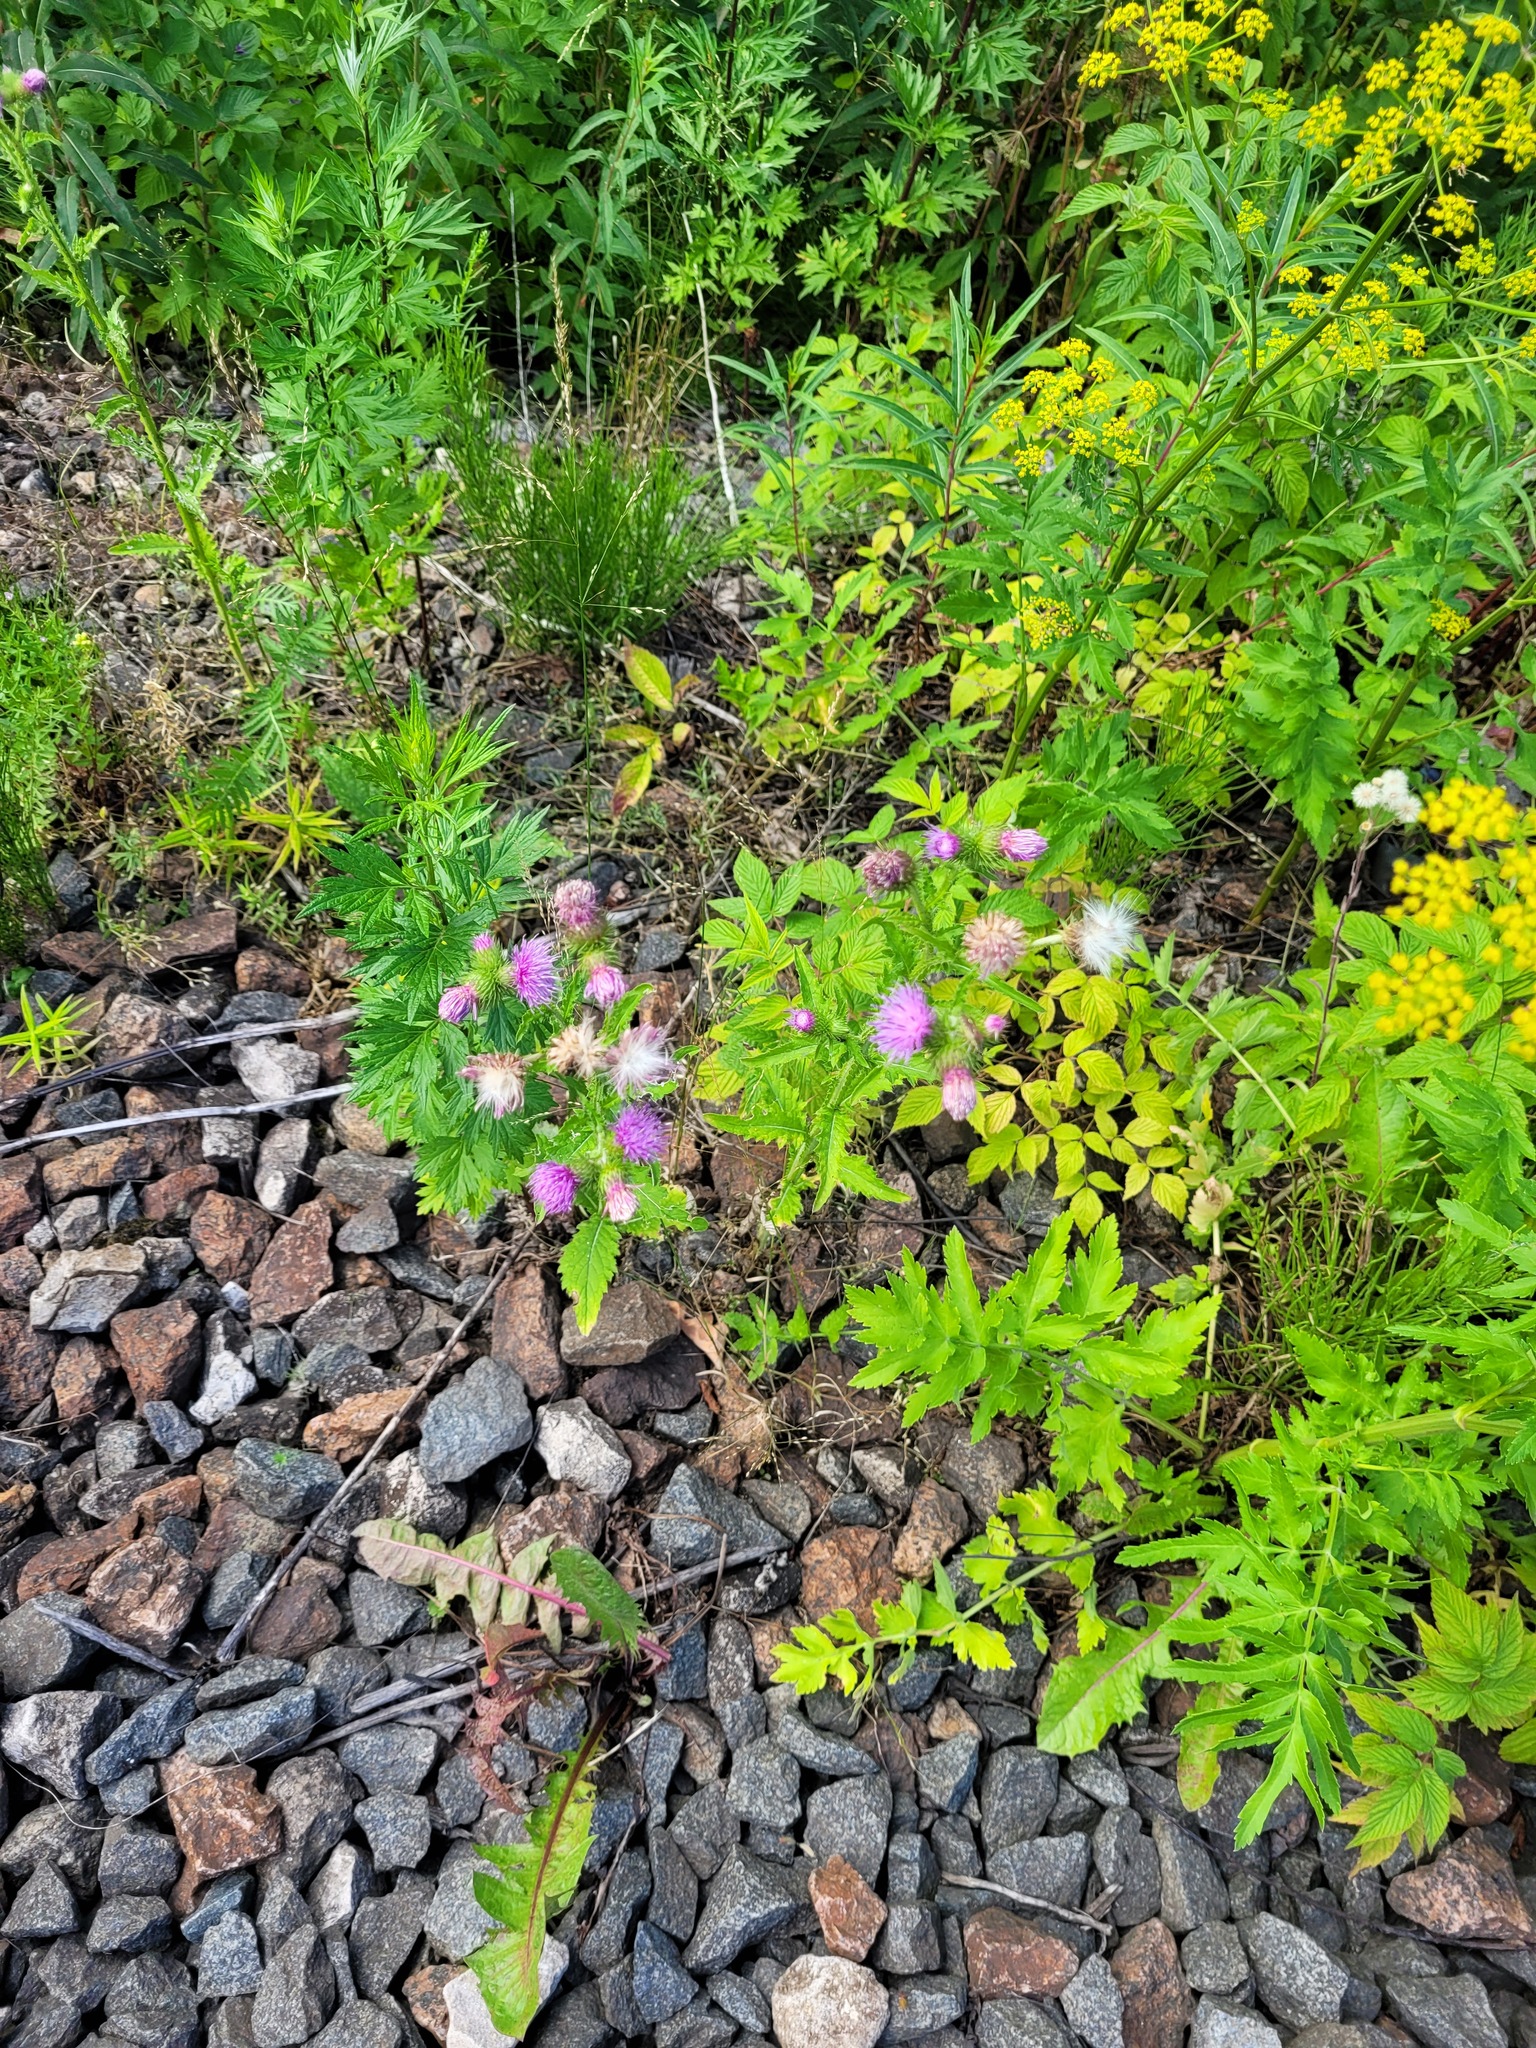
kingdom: Plantae
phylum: Tracheophyta
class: Magnoliopsida
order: Asterales
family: Asteraceae
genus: Carduus
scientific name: Carduus crispus
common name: Welted thistle
